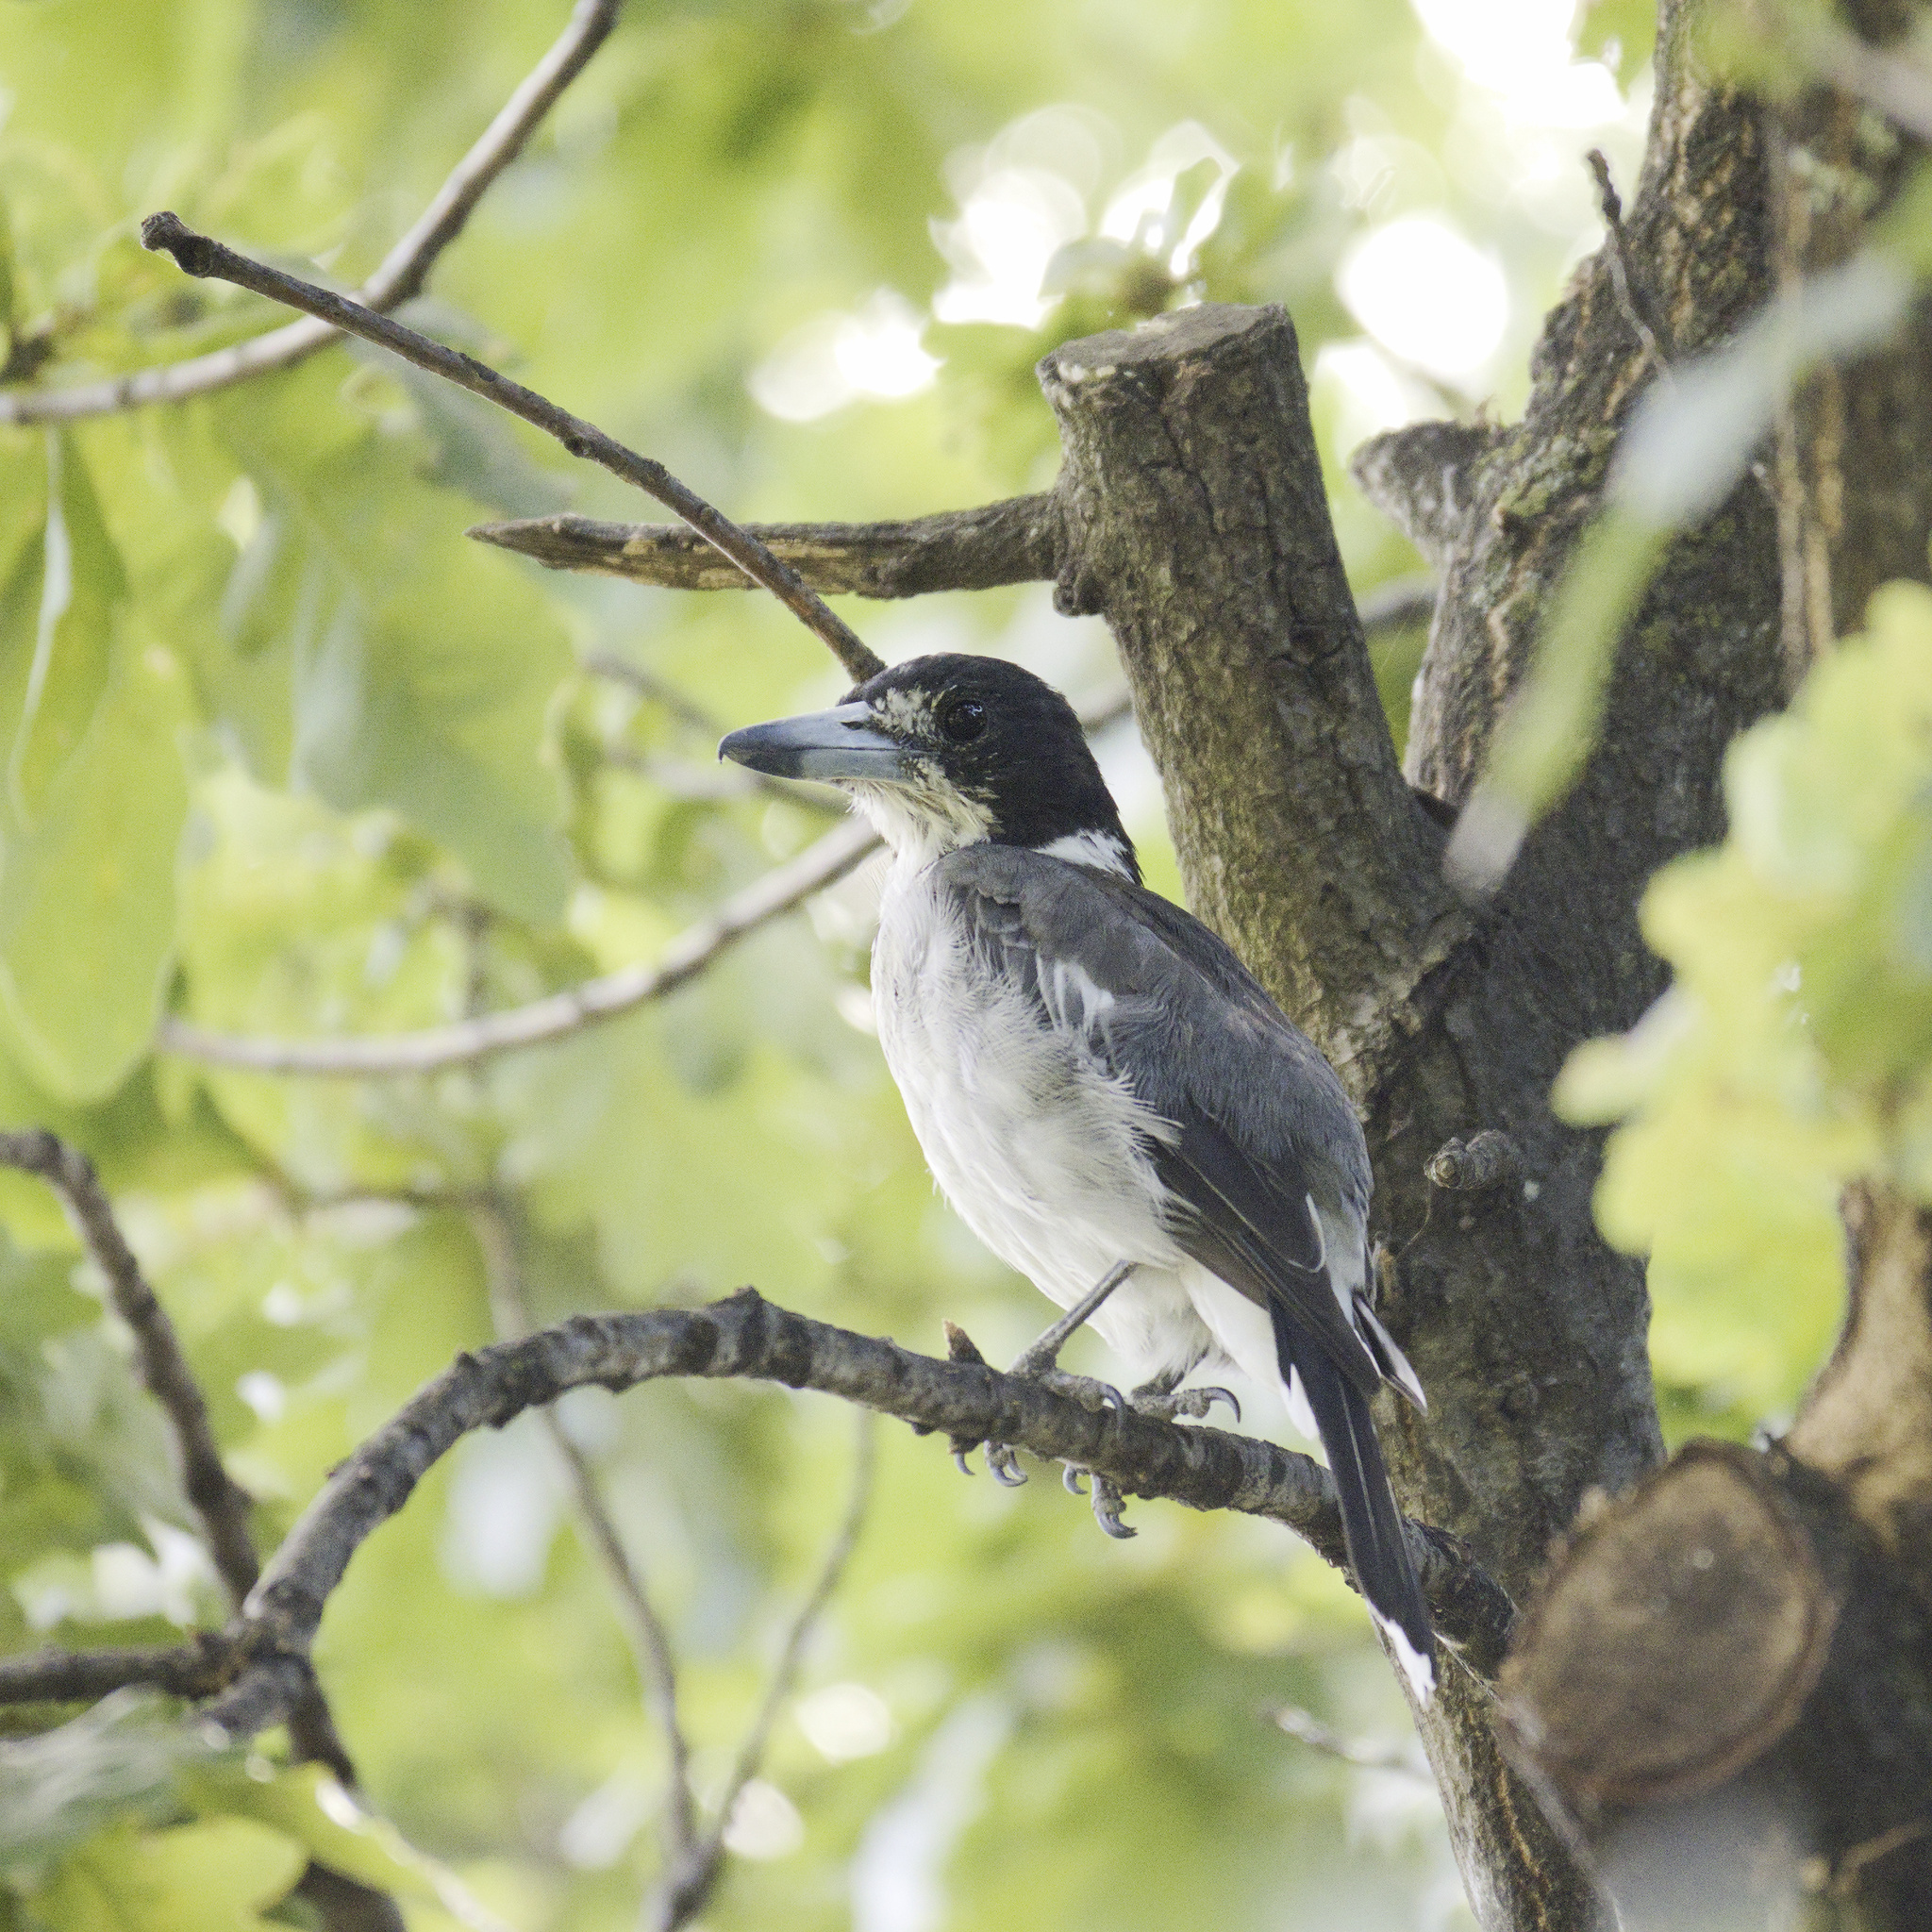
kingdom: Animalia
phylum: Chordata
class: Aves
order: Passeriformes
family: Cracticidae
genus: Cracticus
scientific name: Cracticus torquatus
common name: Grey butcherbird
